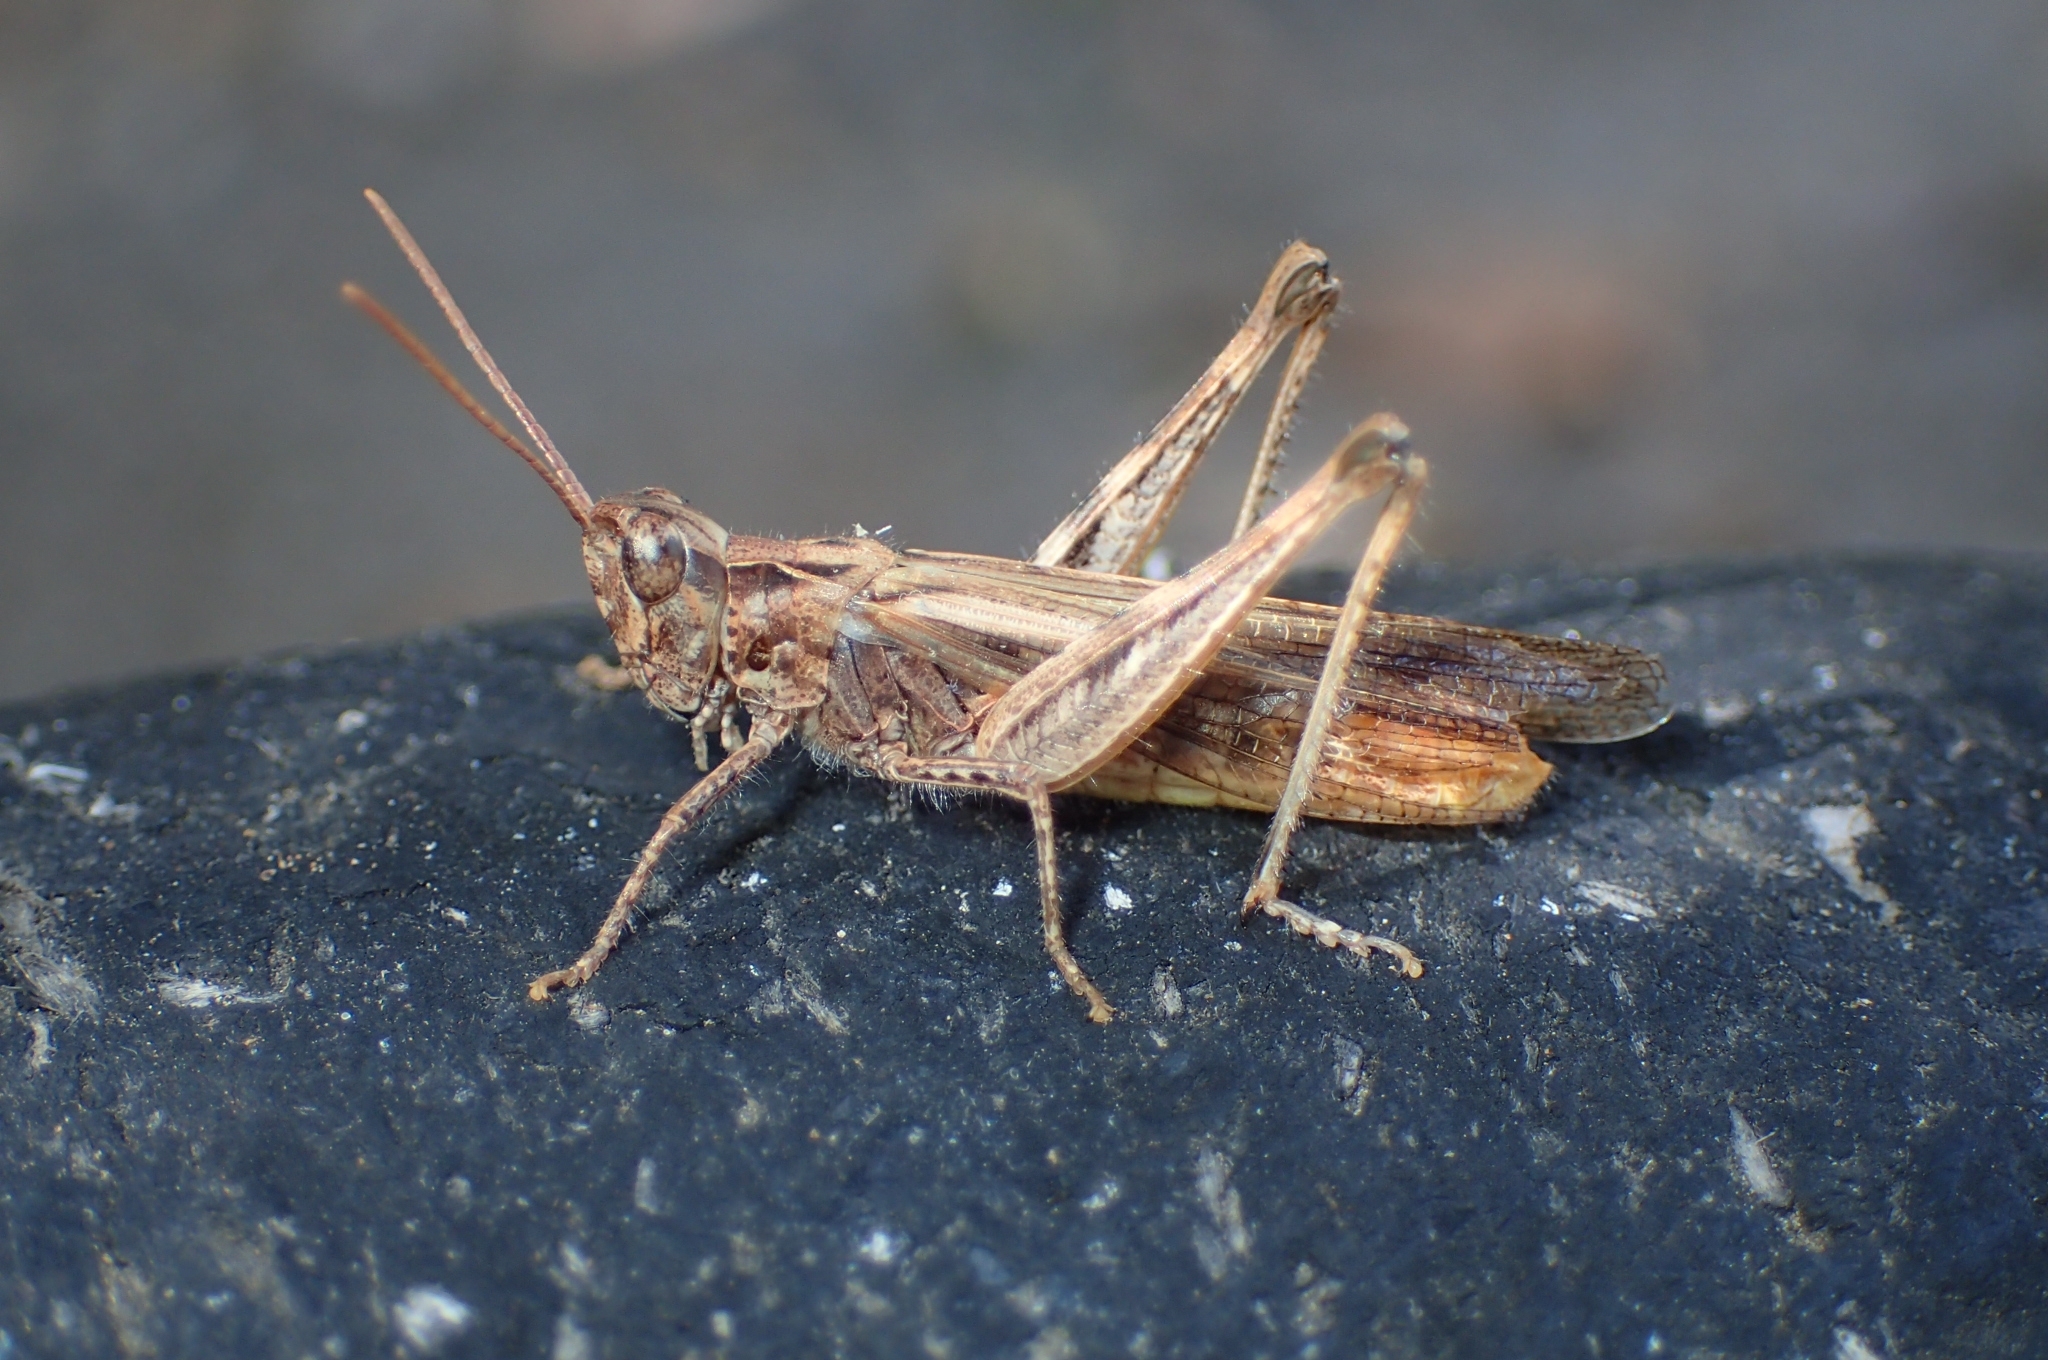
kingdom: Animalia
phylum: Arthropoda
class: Insecta
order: Orthoptera
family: Acrididae
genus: Chorthippus
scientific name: Chorthippus jacobsi
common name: Iberian field grasshopper
